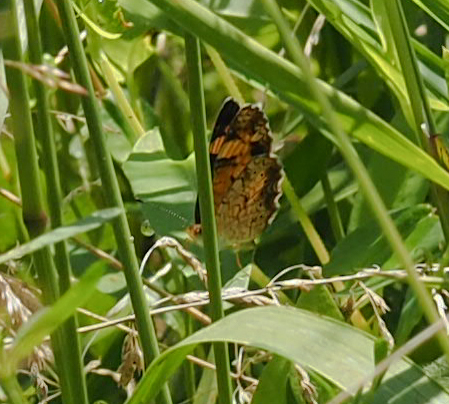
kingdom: Animalia
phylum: Arthropoda
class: Insecta
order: Lepidoptera
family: Nymphalidae
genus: Phyciodes
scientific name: Phyciodes tharos
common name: Pearl crescent
